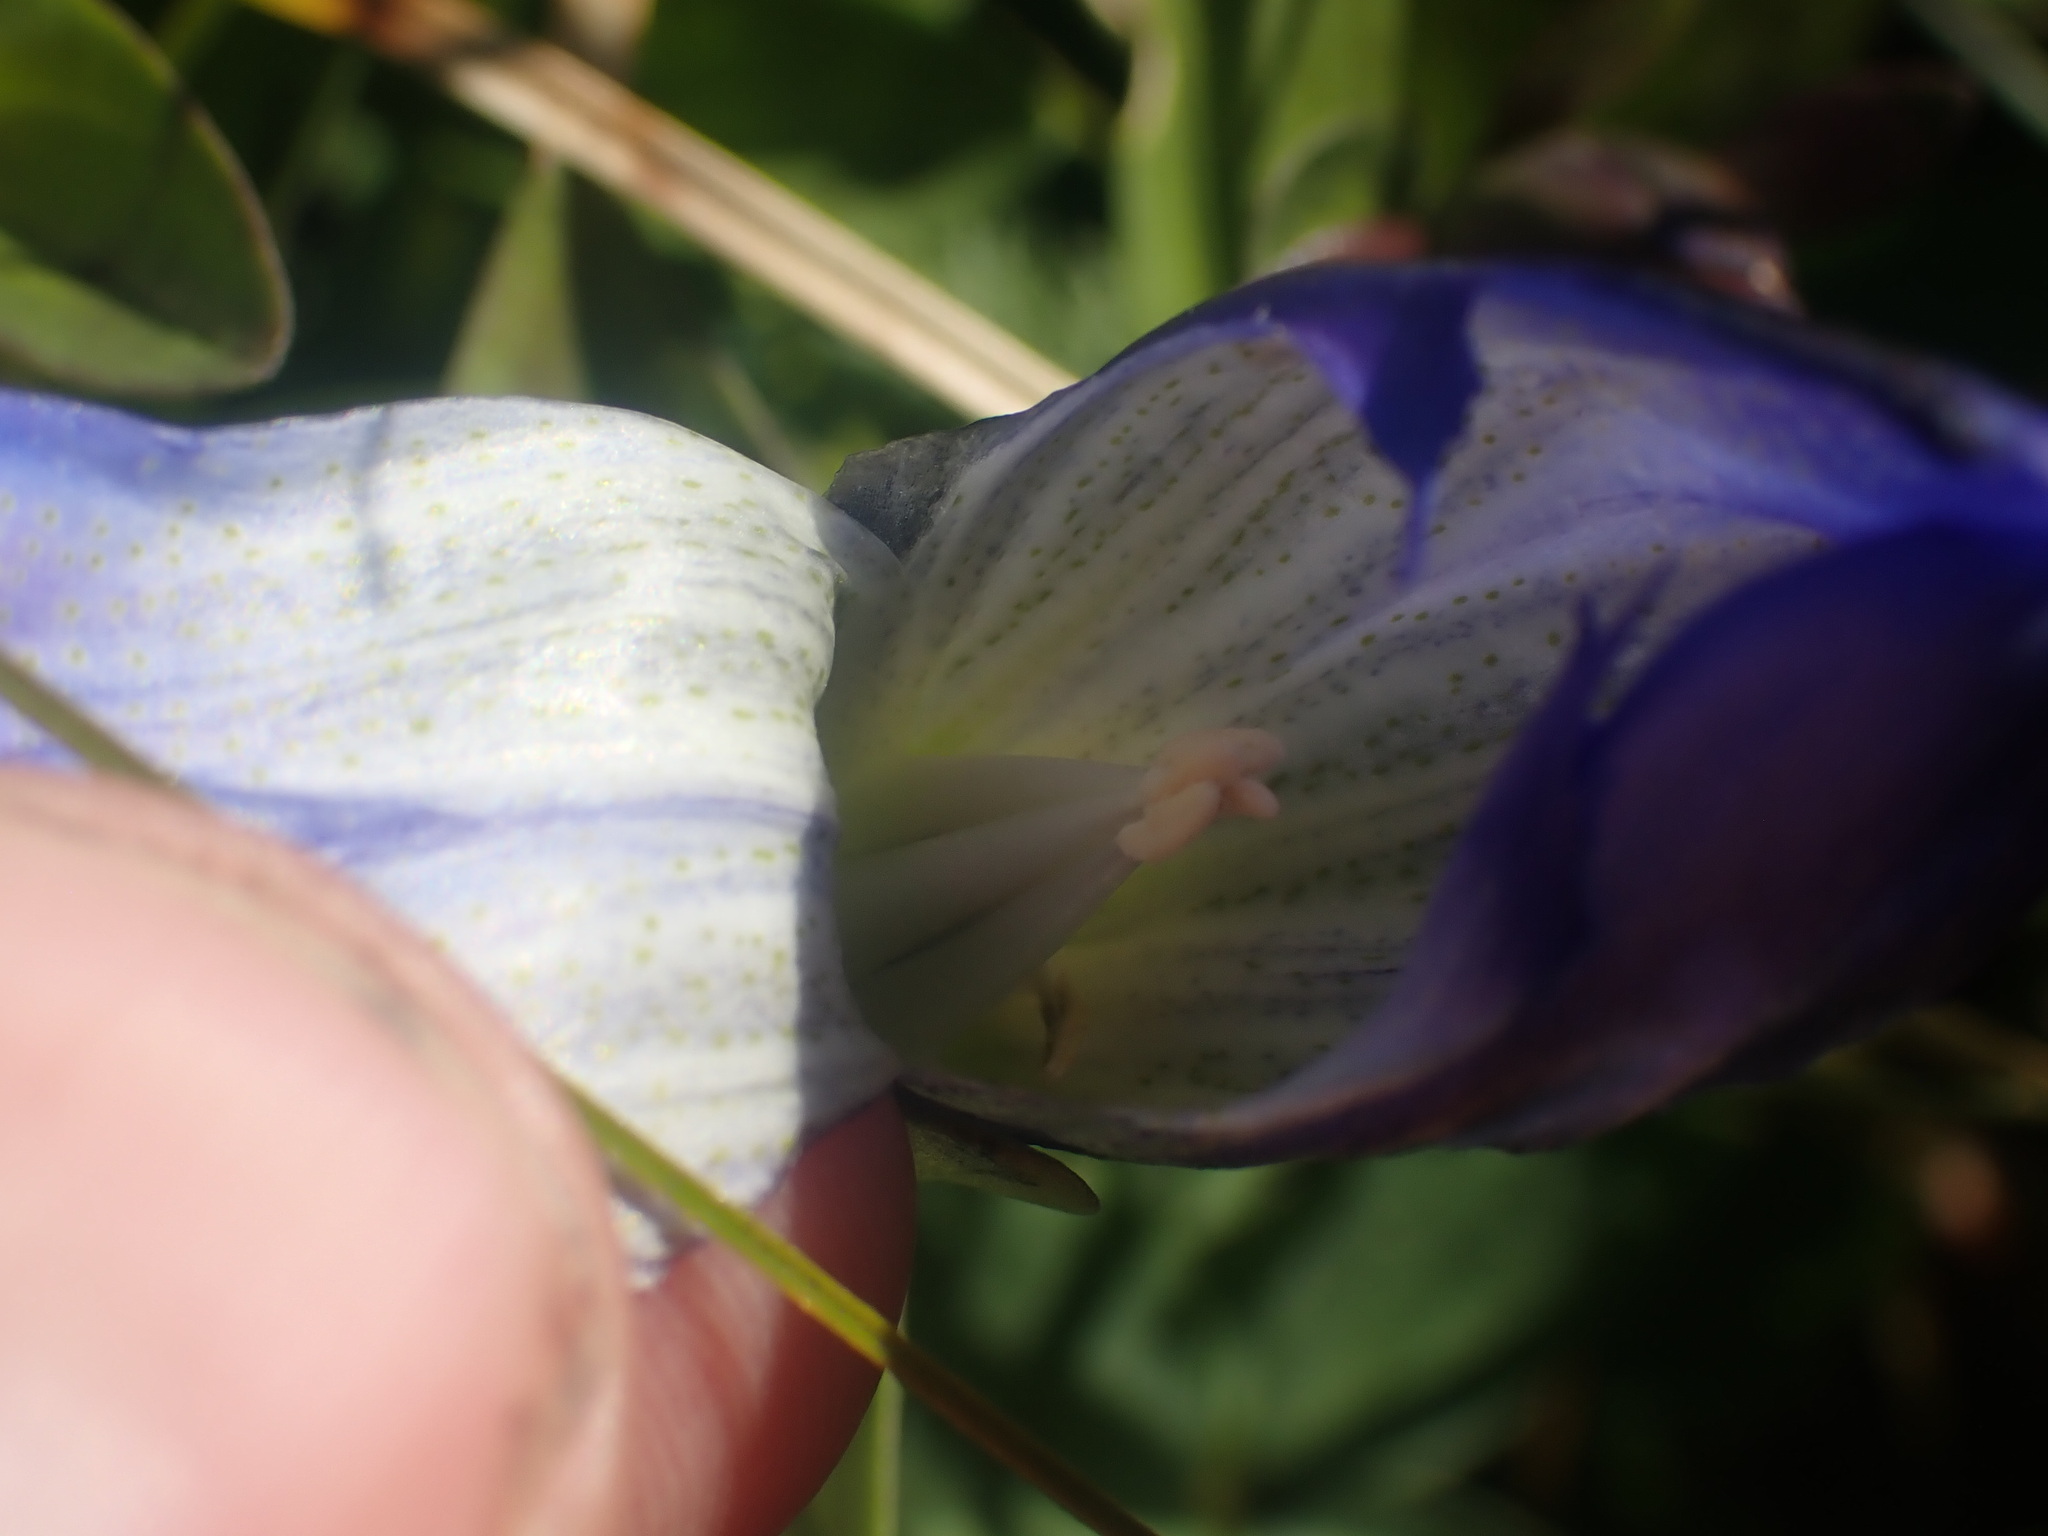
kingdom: Plantae
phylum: Tracheophyta
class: Magnoliopsida
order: Gentianales
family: Gentianaceae
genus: Gentiana
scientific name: Gentiana calycosa
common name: Rainier pleated gentian
